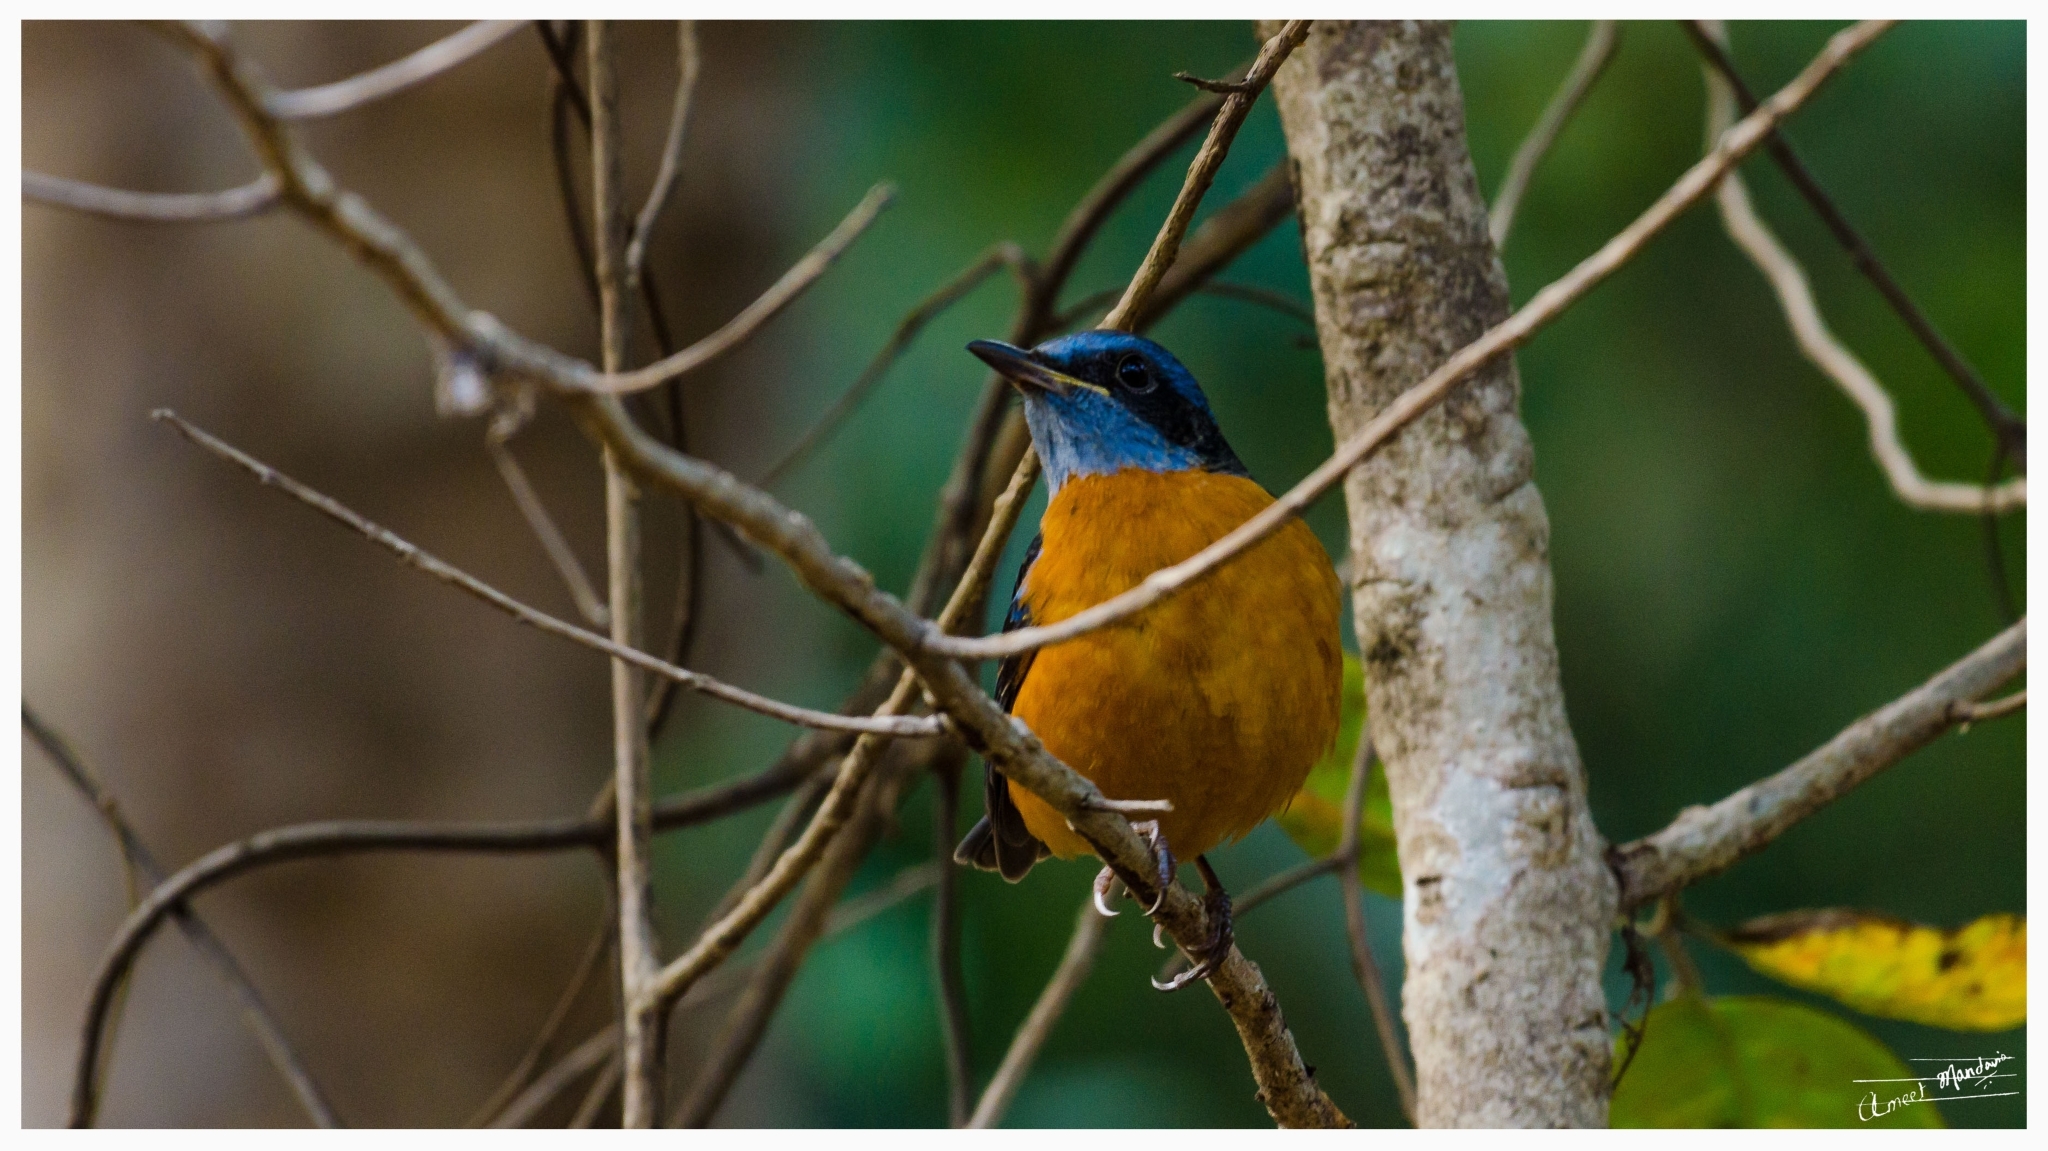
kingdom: Animalia
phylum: Chordata
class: Aves
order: Passeriformes
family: Muscicapidae
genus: Monticola
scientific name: Monticola cinclorhynchus
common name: Blue-capped rock thrush
